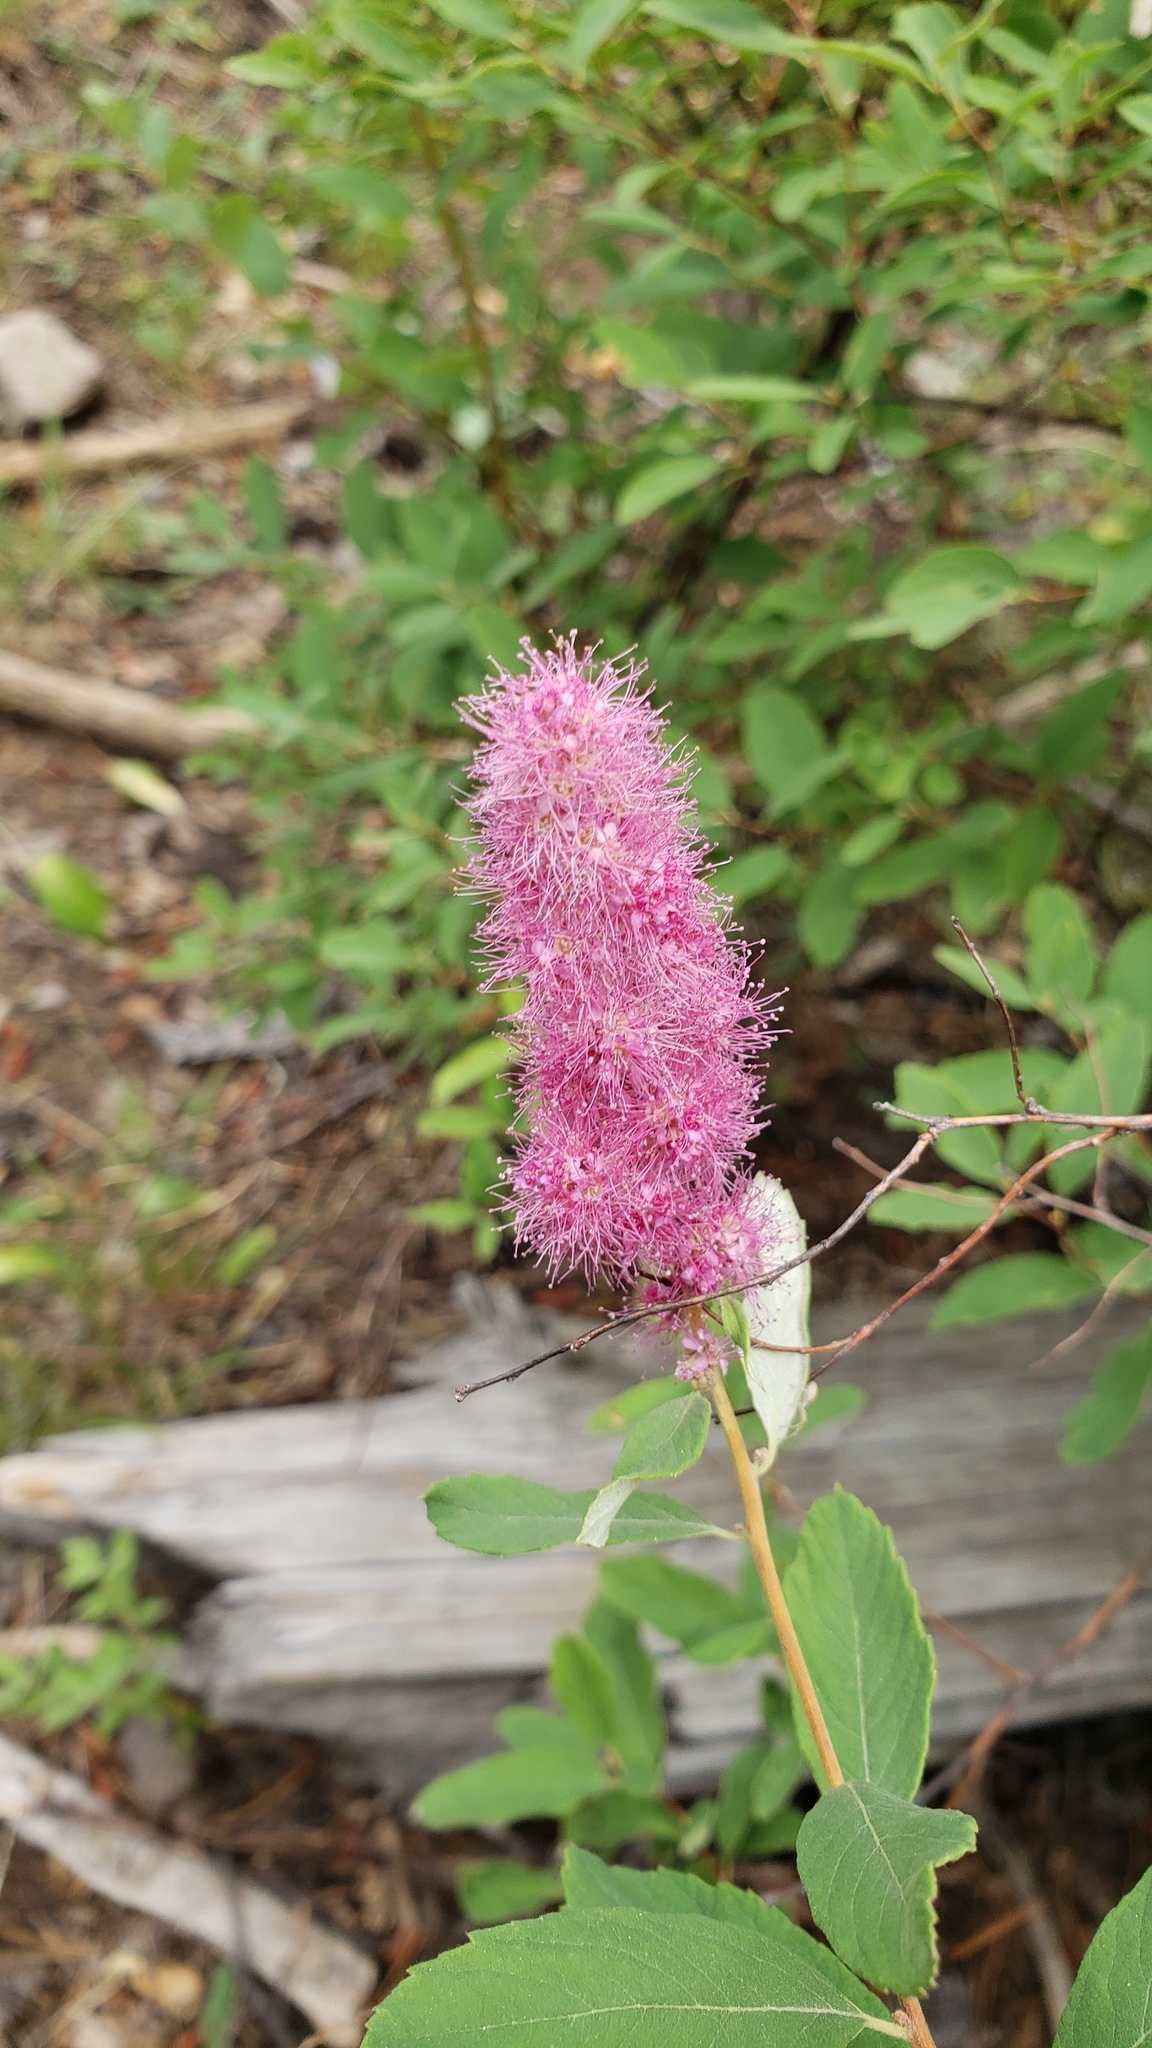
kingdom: Plantae
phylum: Tracheophyta
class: Magnoliopsida
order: Rosales
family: Rosaceae
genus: Spiraea
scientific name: Spiraea douglasii
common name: Steeplebush
